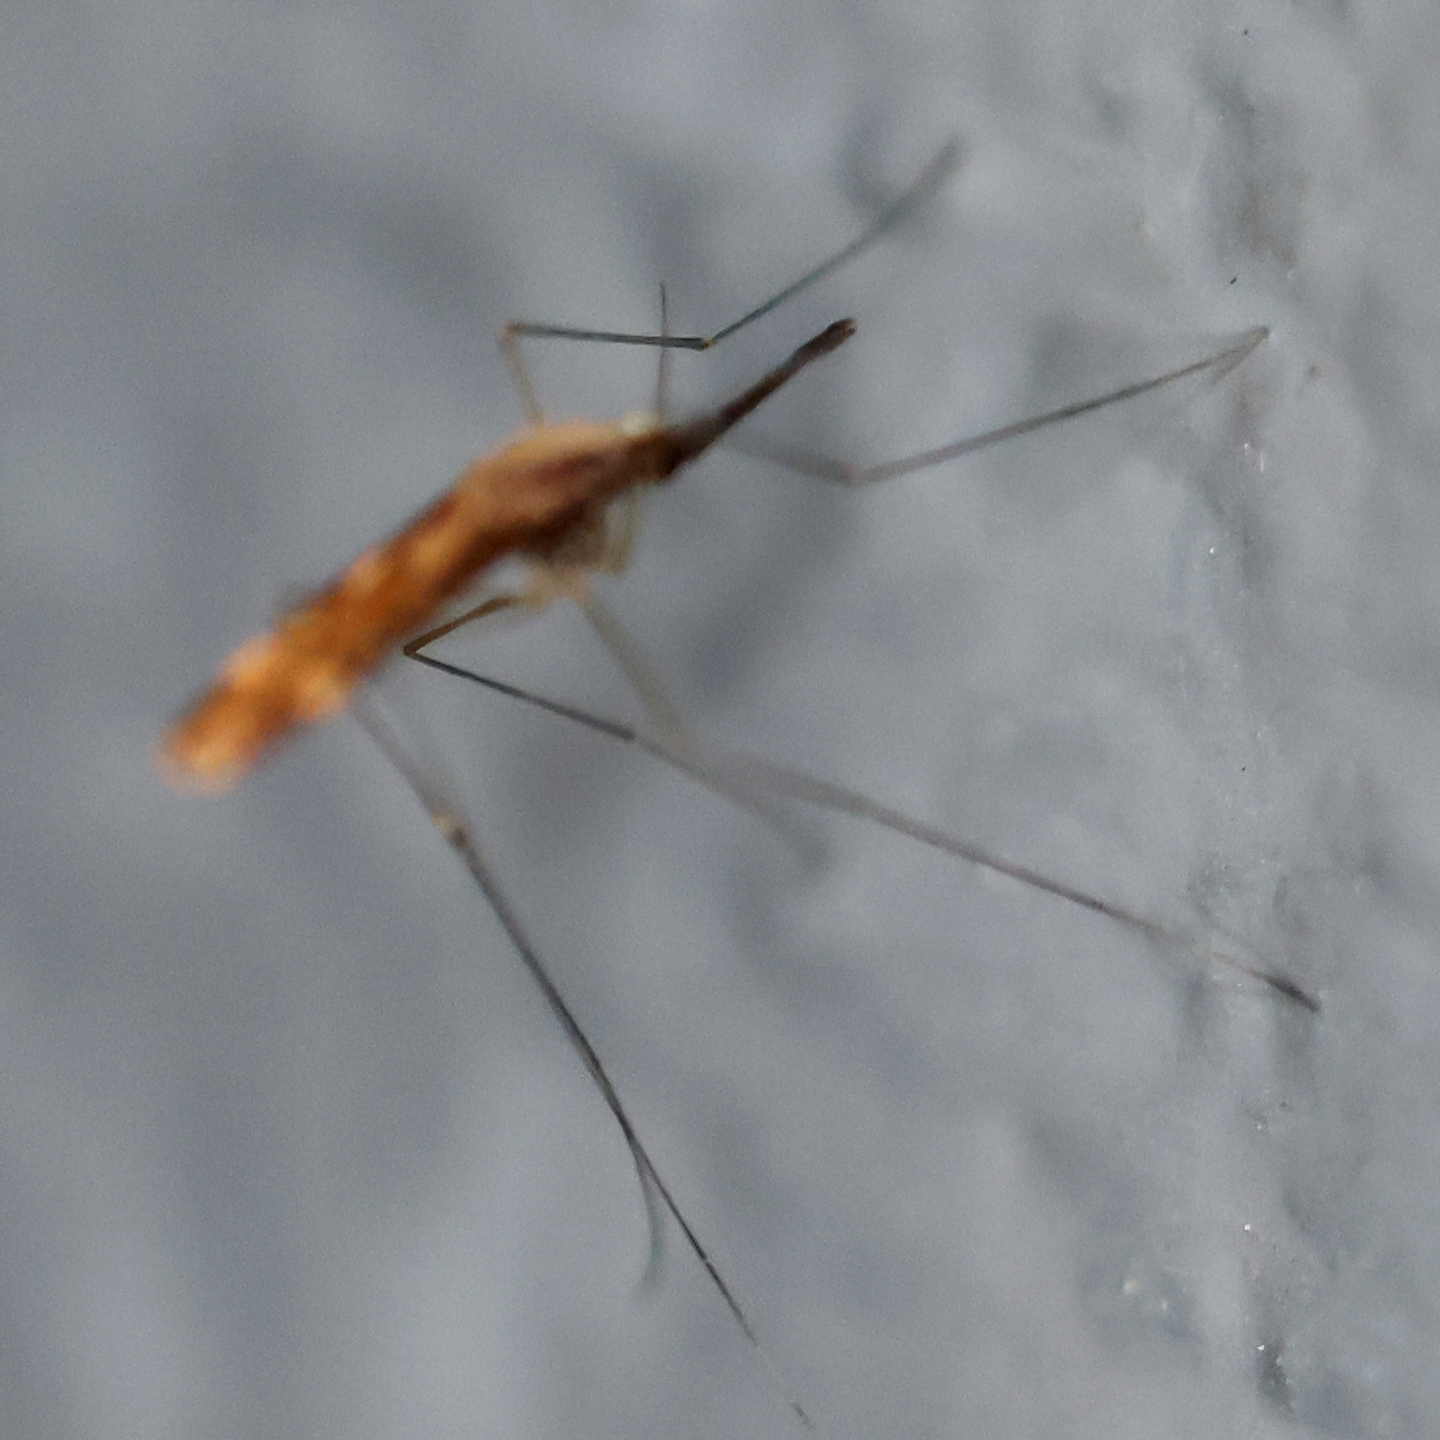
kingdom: Animalia
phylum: Arthropoda
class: Insecta
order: Diptera
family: Culicidae
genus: Anopheles
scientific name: Anopheles punctipennis
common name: Woodland malaria mosquito
